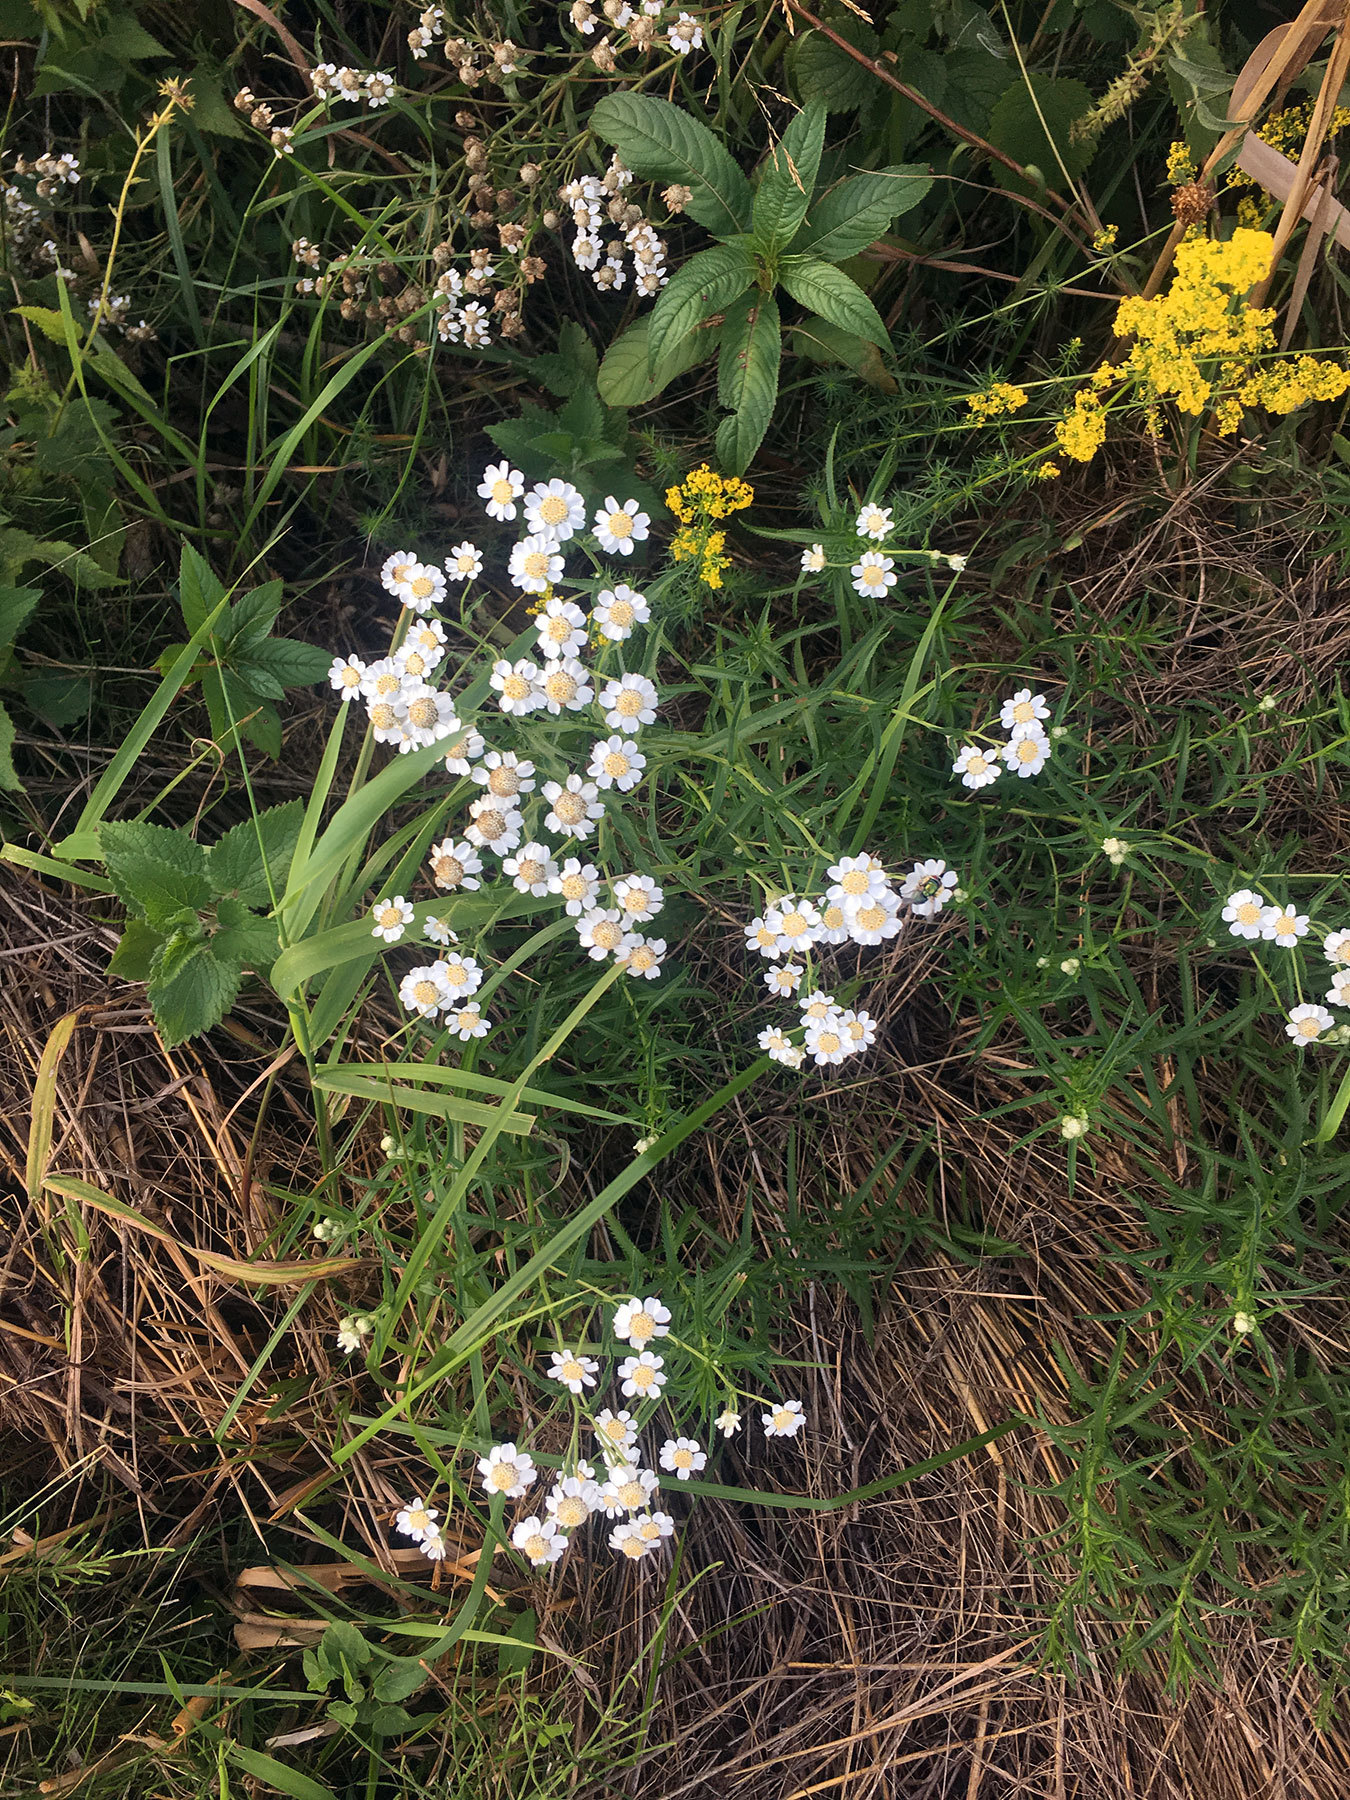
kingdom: Plantae
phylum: Tracheophyta
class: Magnoliopsida
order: Asterales
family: Asteraceae
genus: Achillea
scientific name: Achillea ptarmica
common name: Sneezeweed
